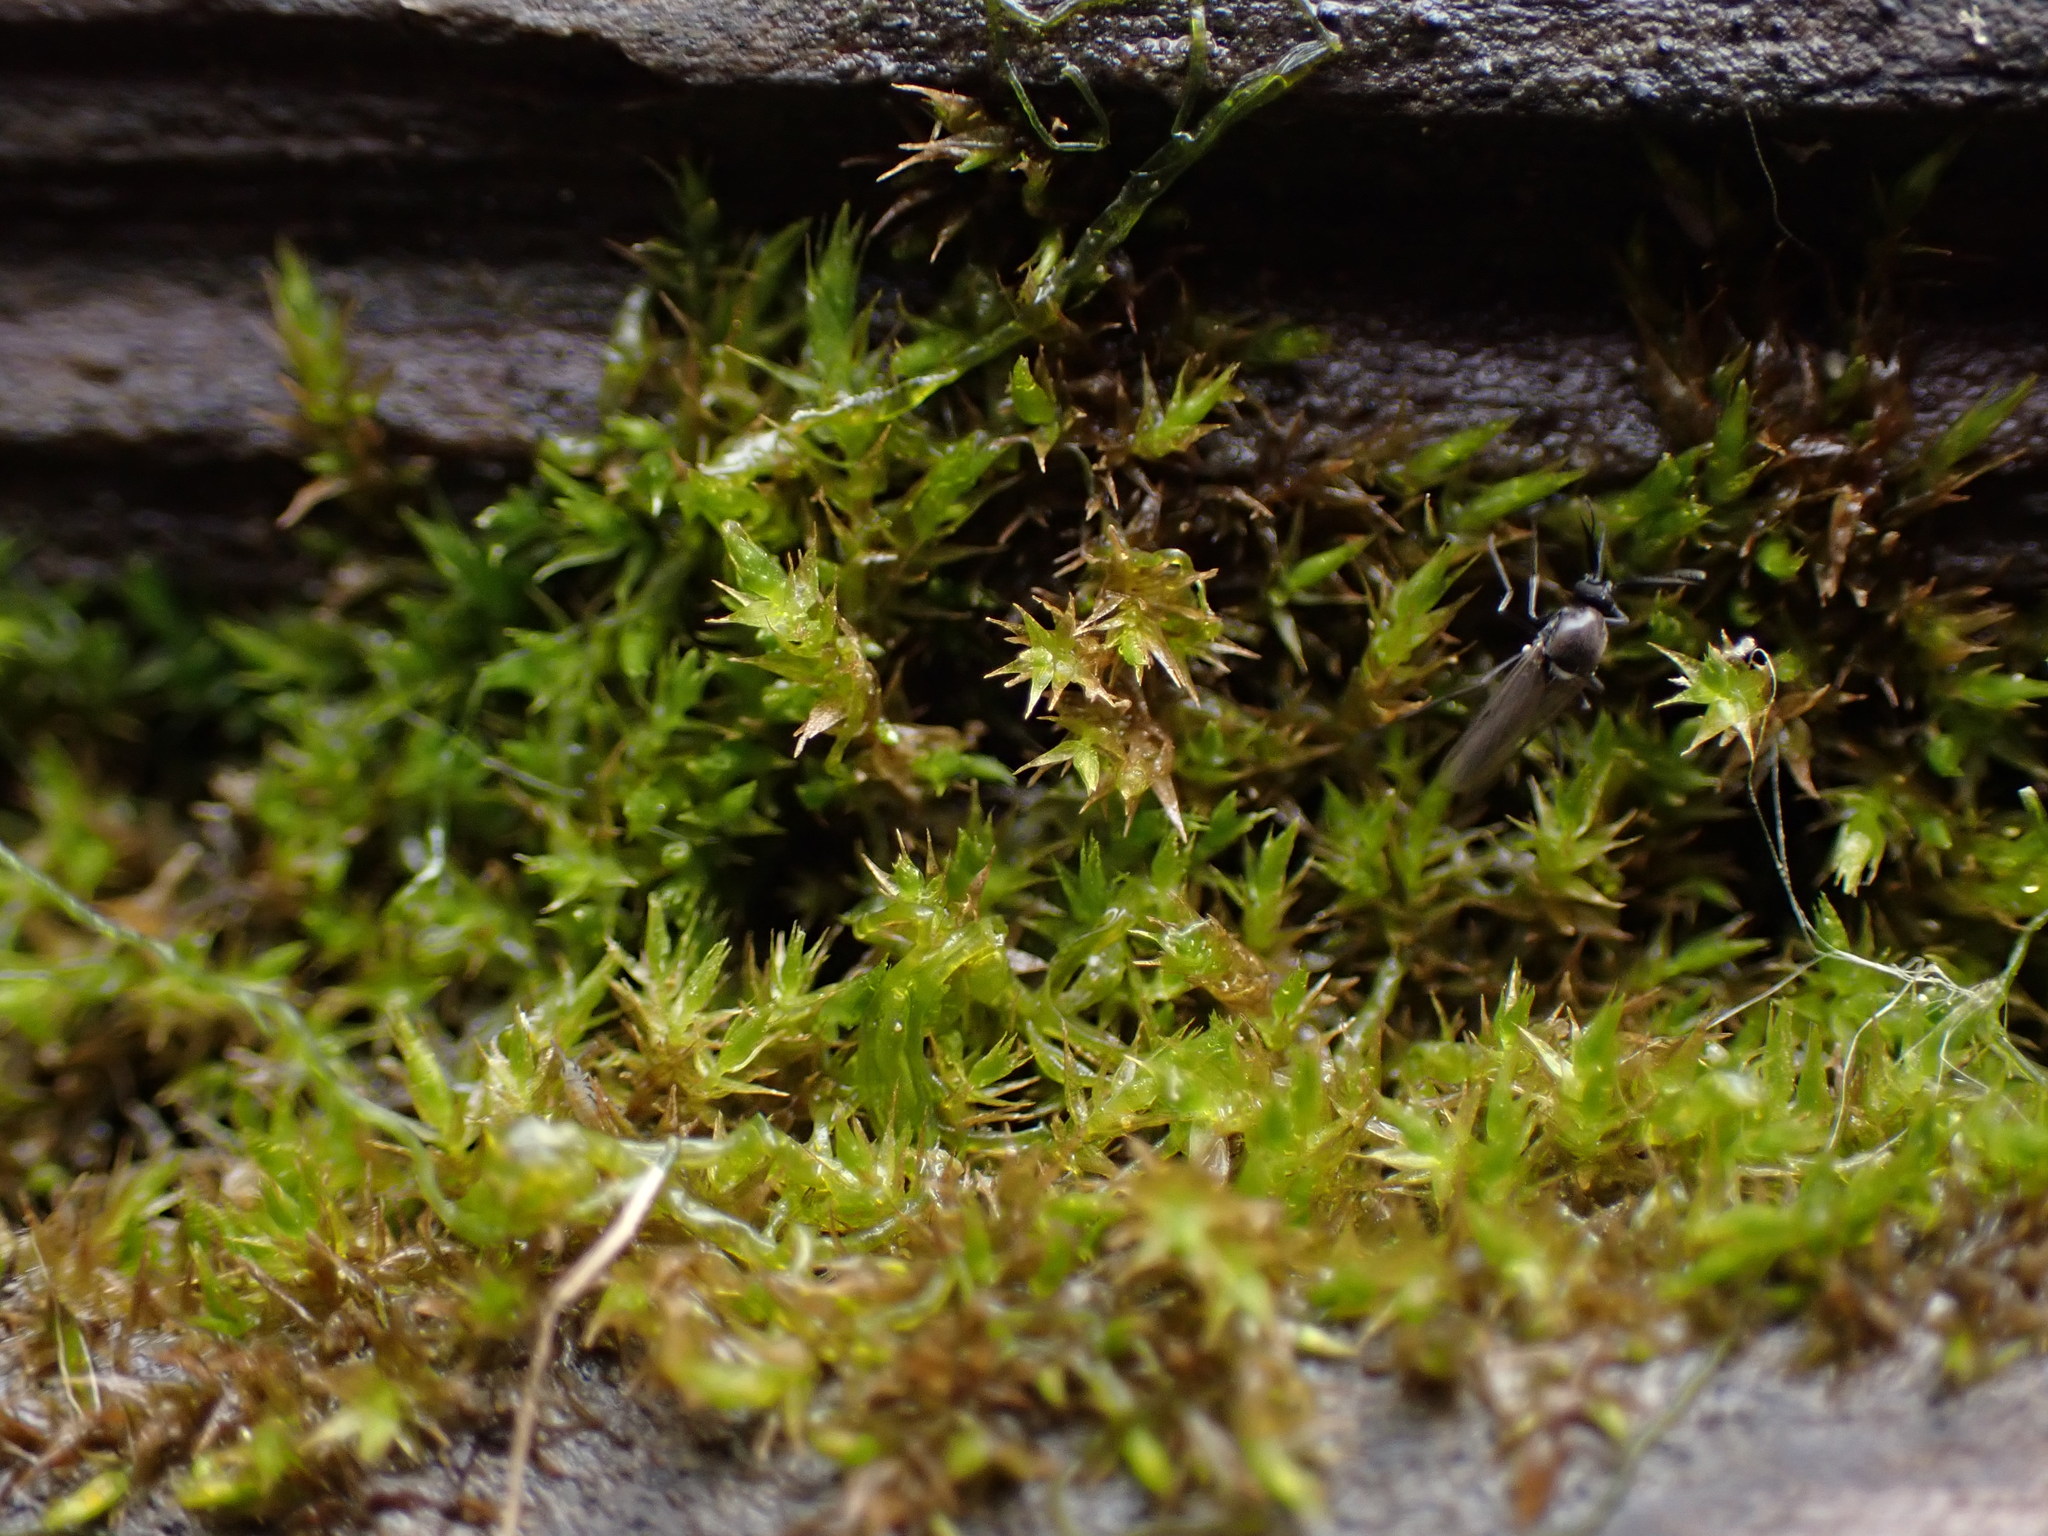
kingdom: Plantae
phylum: Bryophyta
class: Bryopsida
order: Hypnales
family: Amblystegiaceae
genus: Hygroamblystegium
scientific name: Hygroamblystegium tenax
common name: Fountain feather-moss
